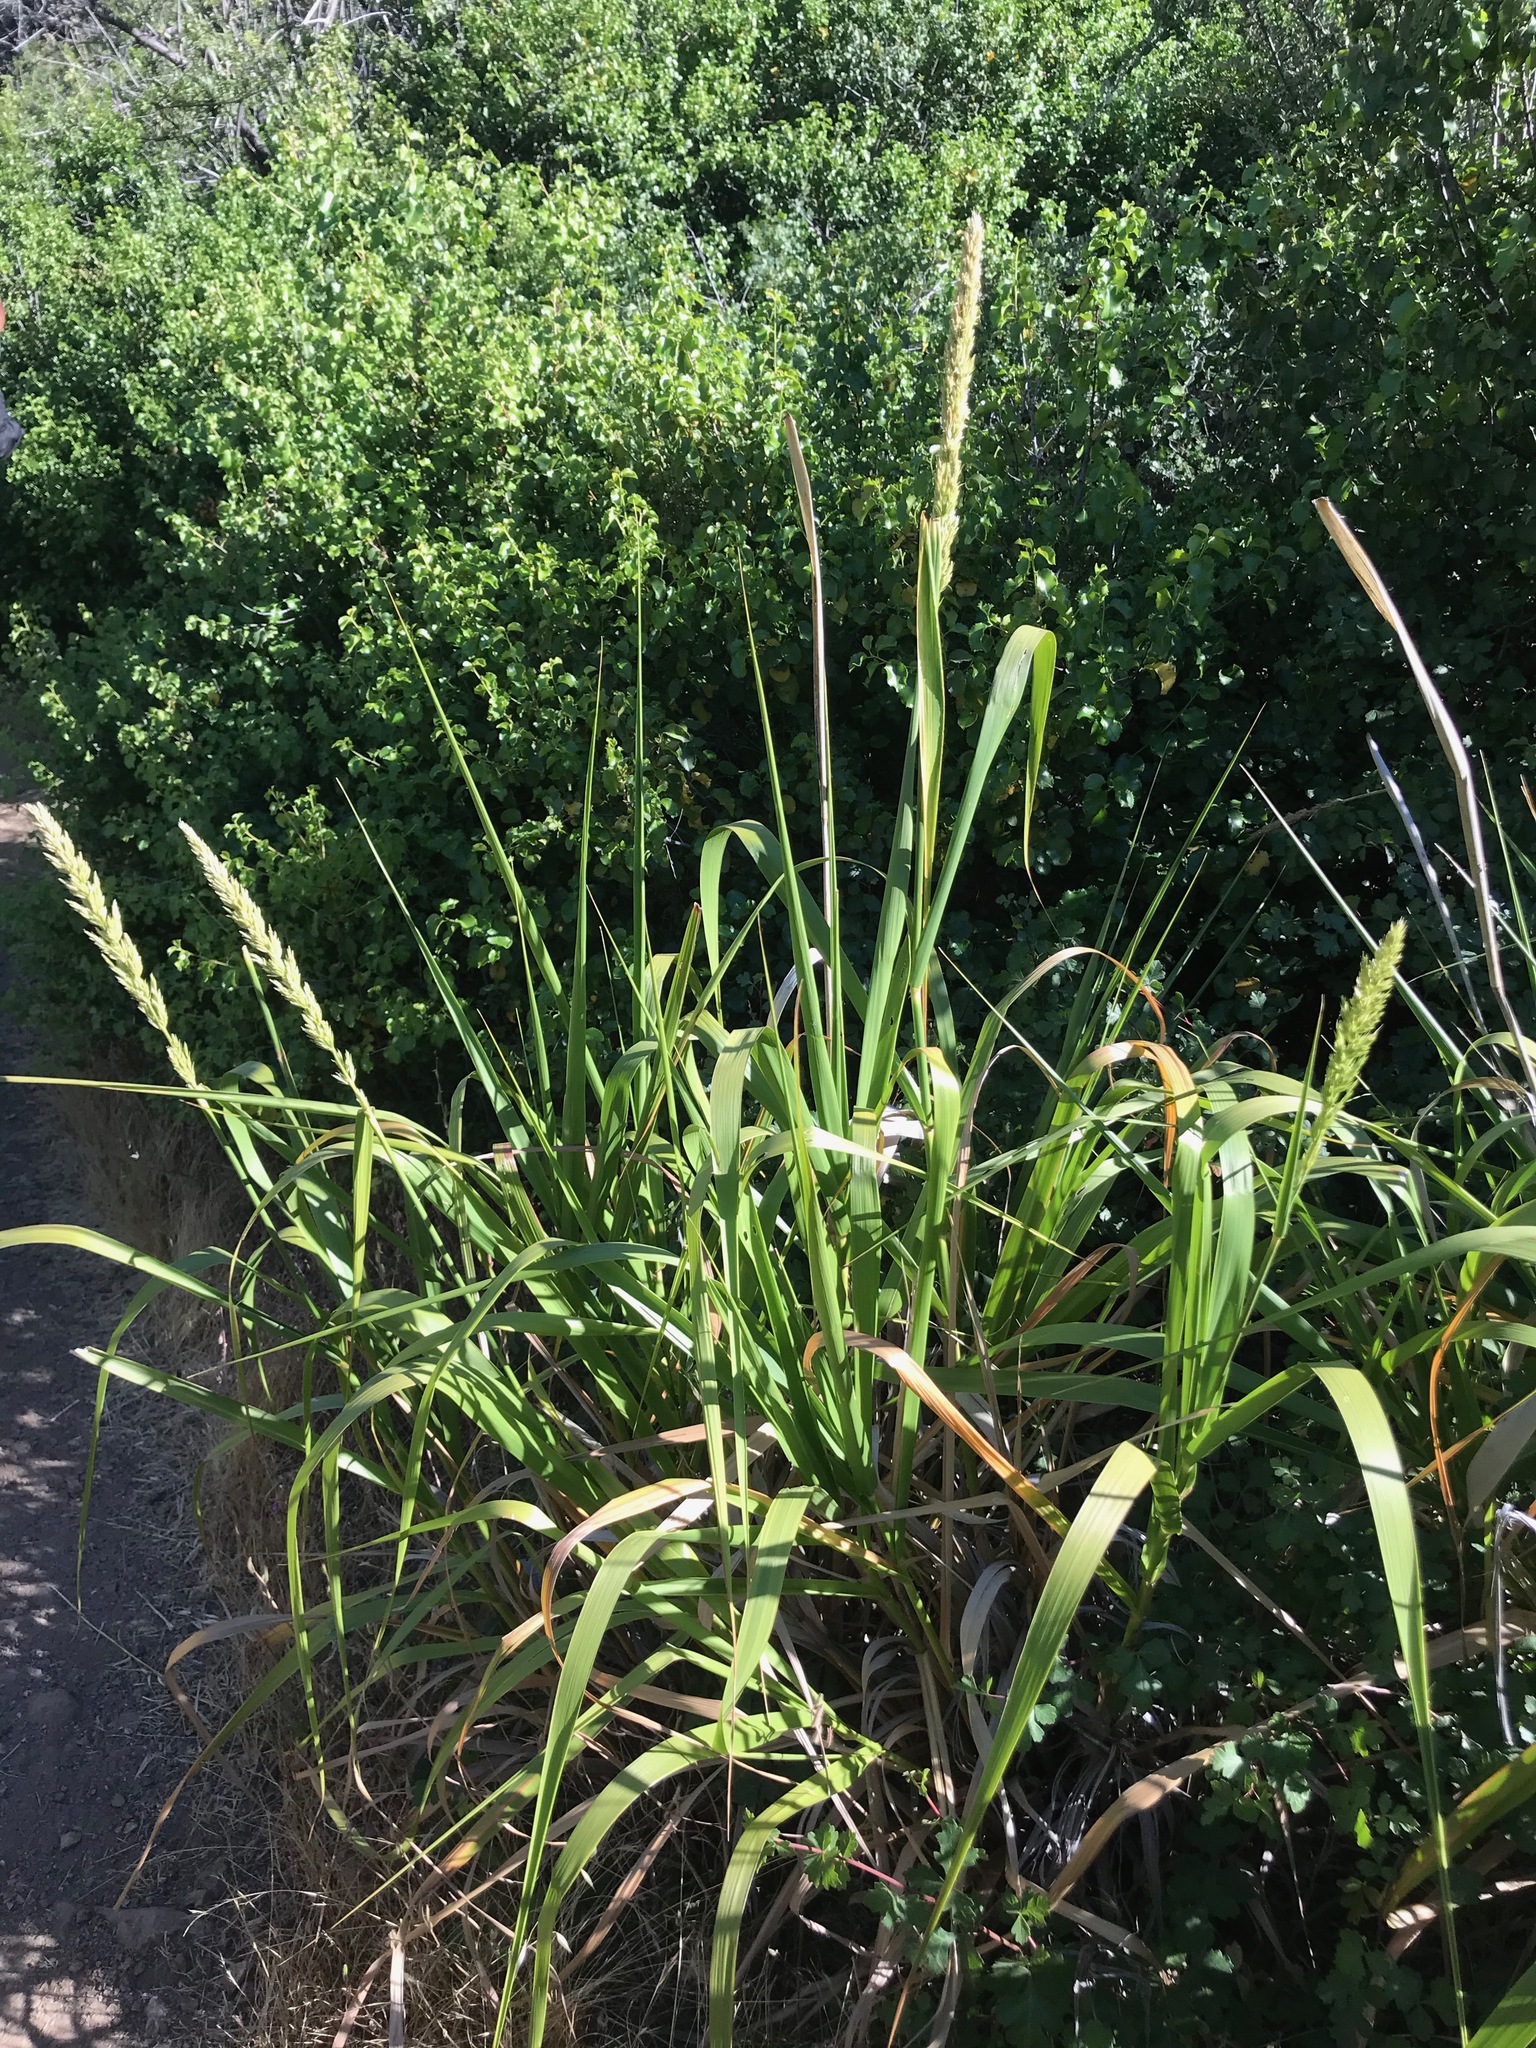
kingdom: Plantae
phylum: Tracheophyta
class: Liliopsida
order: Poales
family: Poaceae
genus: Leymus
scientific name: Leymus condensatus
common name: Giant wild rye
